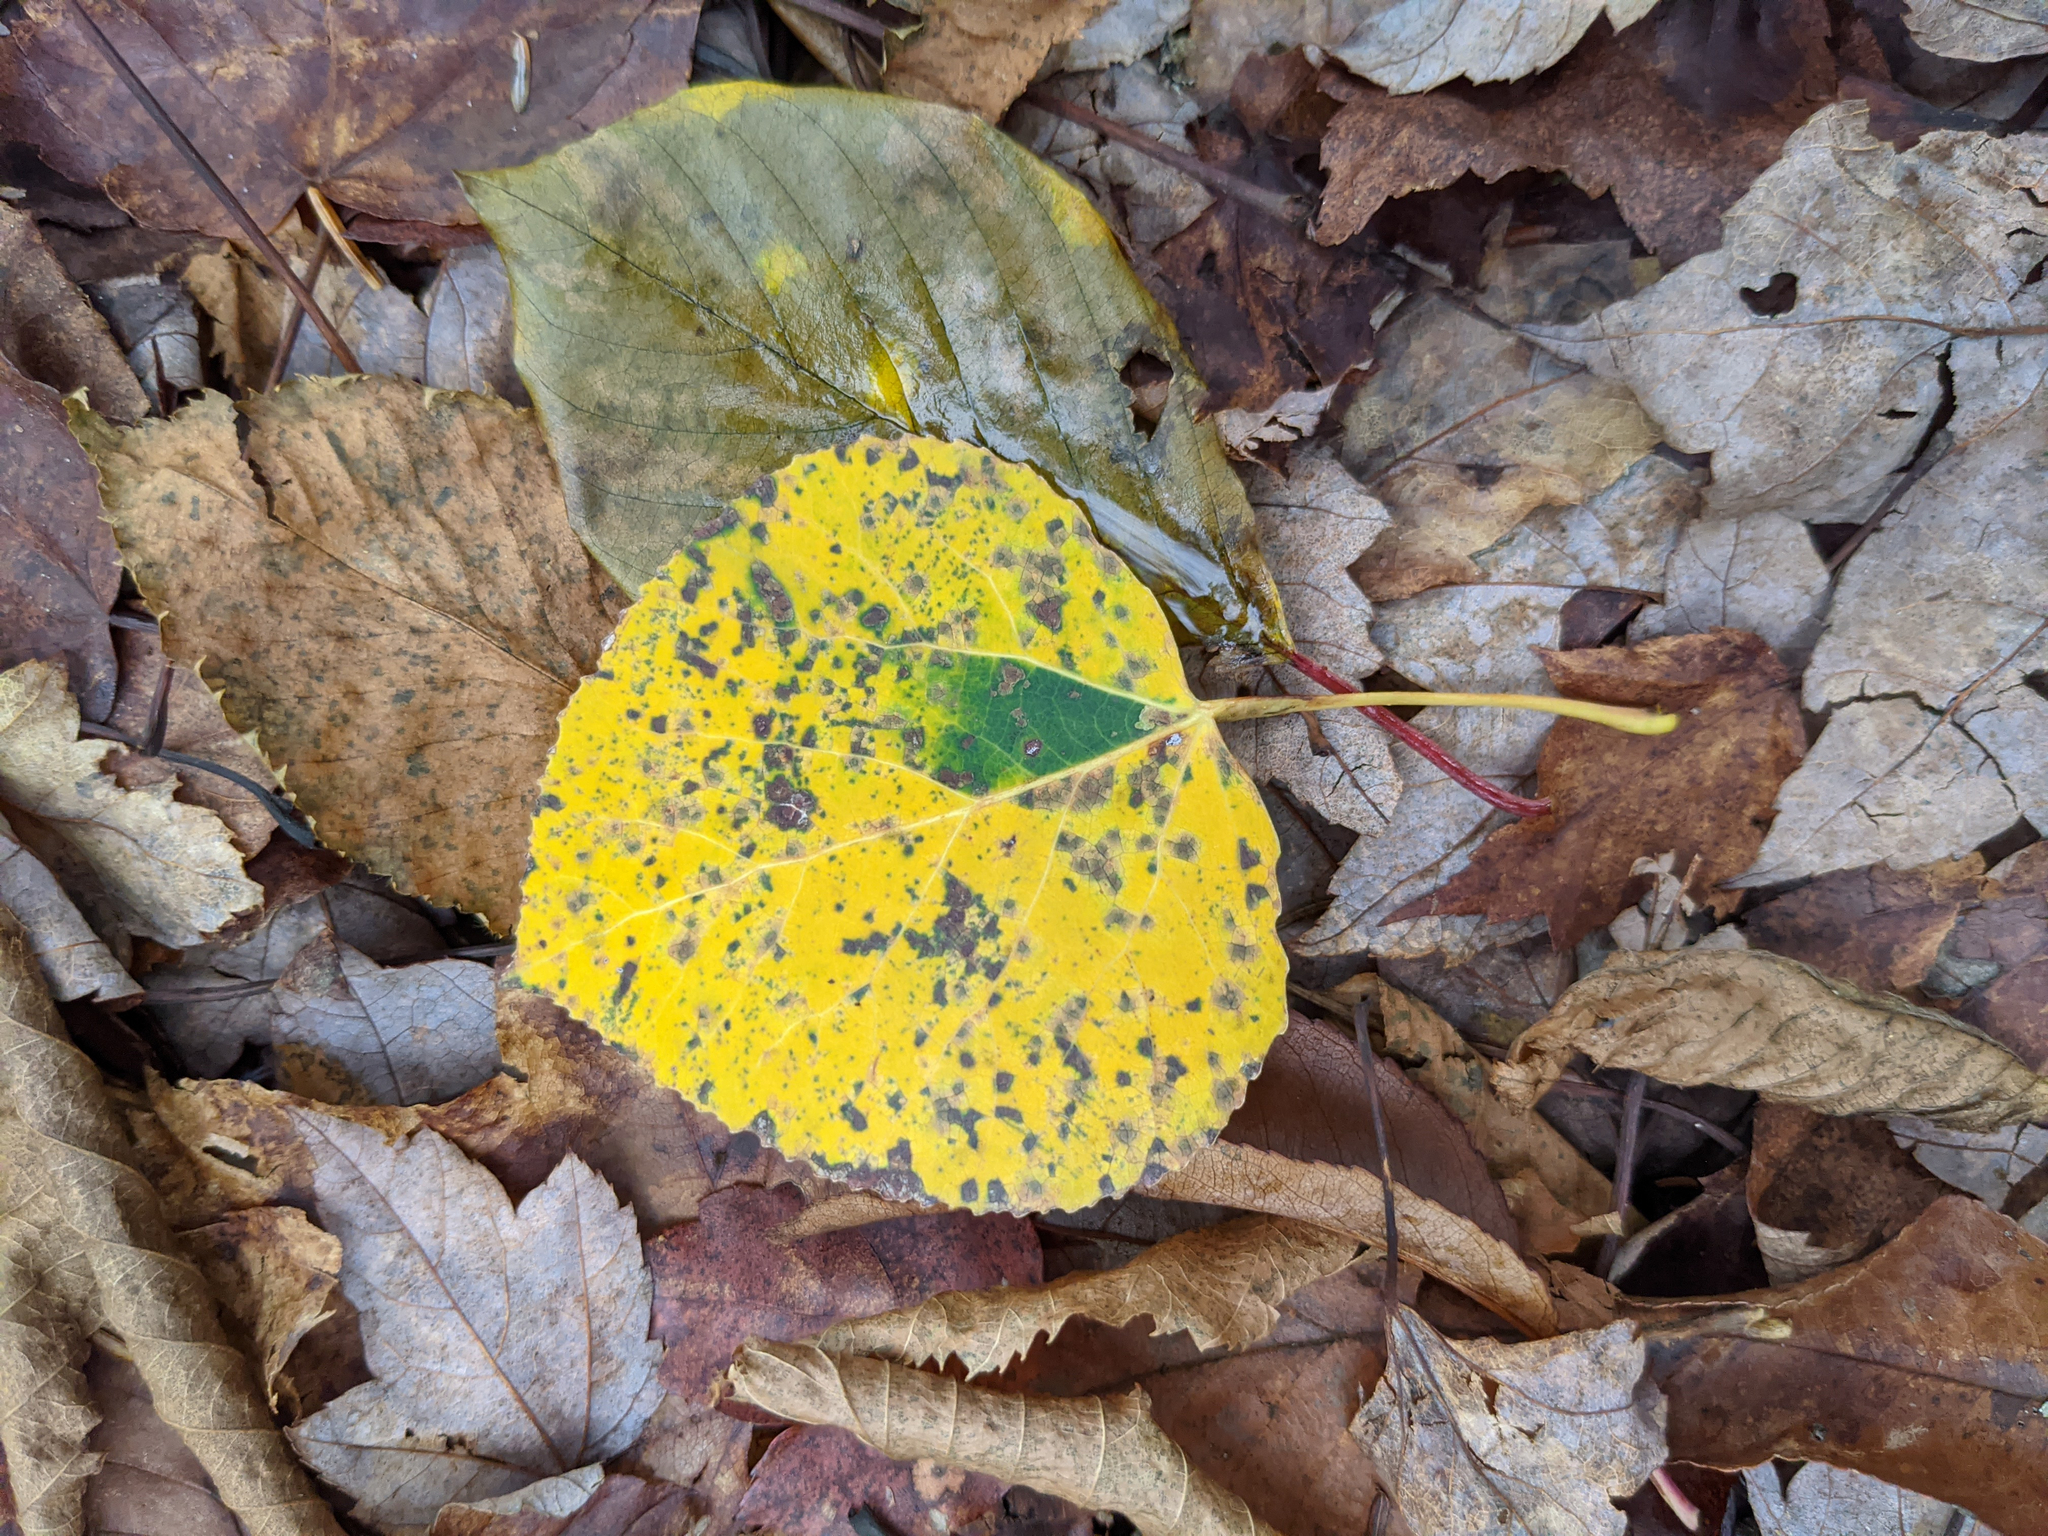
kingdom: Plantae
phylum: Tracheophyta
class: Magnoliopsida
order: Malpighiales
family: Salicaceae
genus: Populus
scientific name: Populus tremuloides
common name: Quaking aspen
